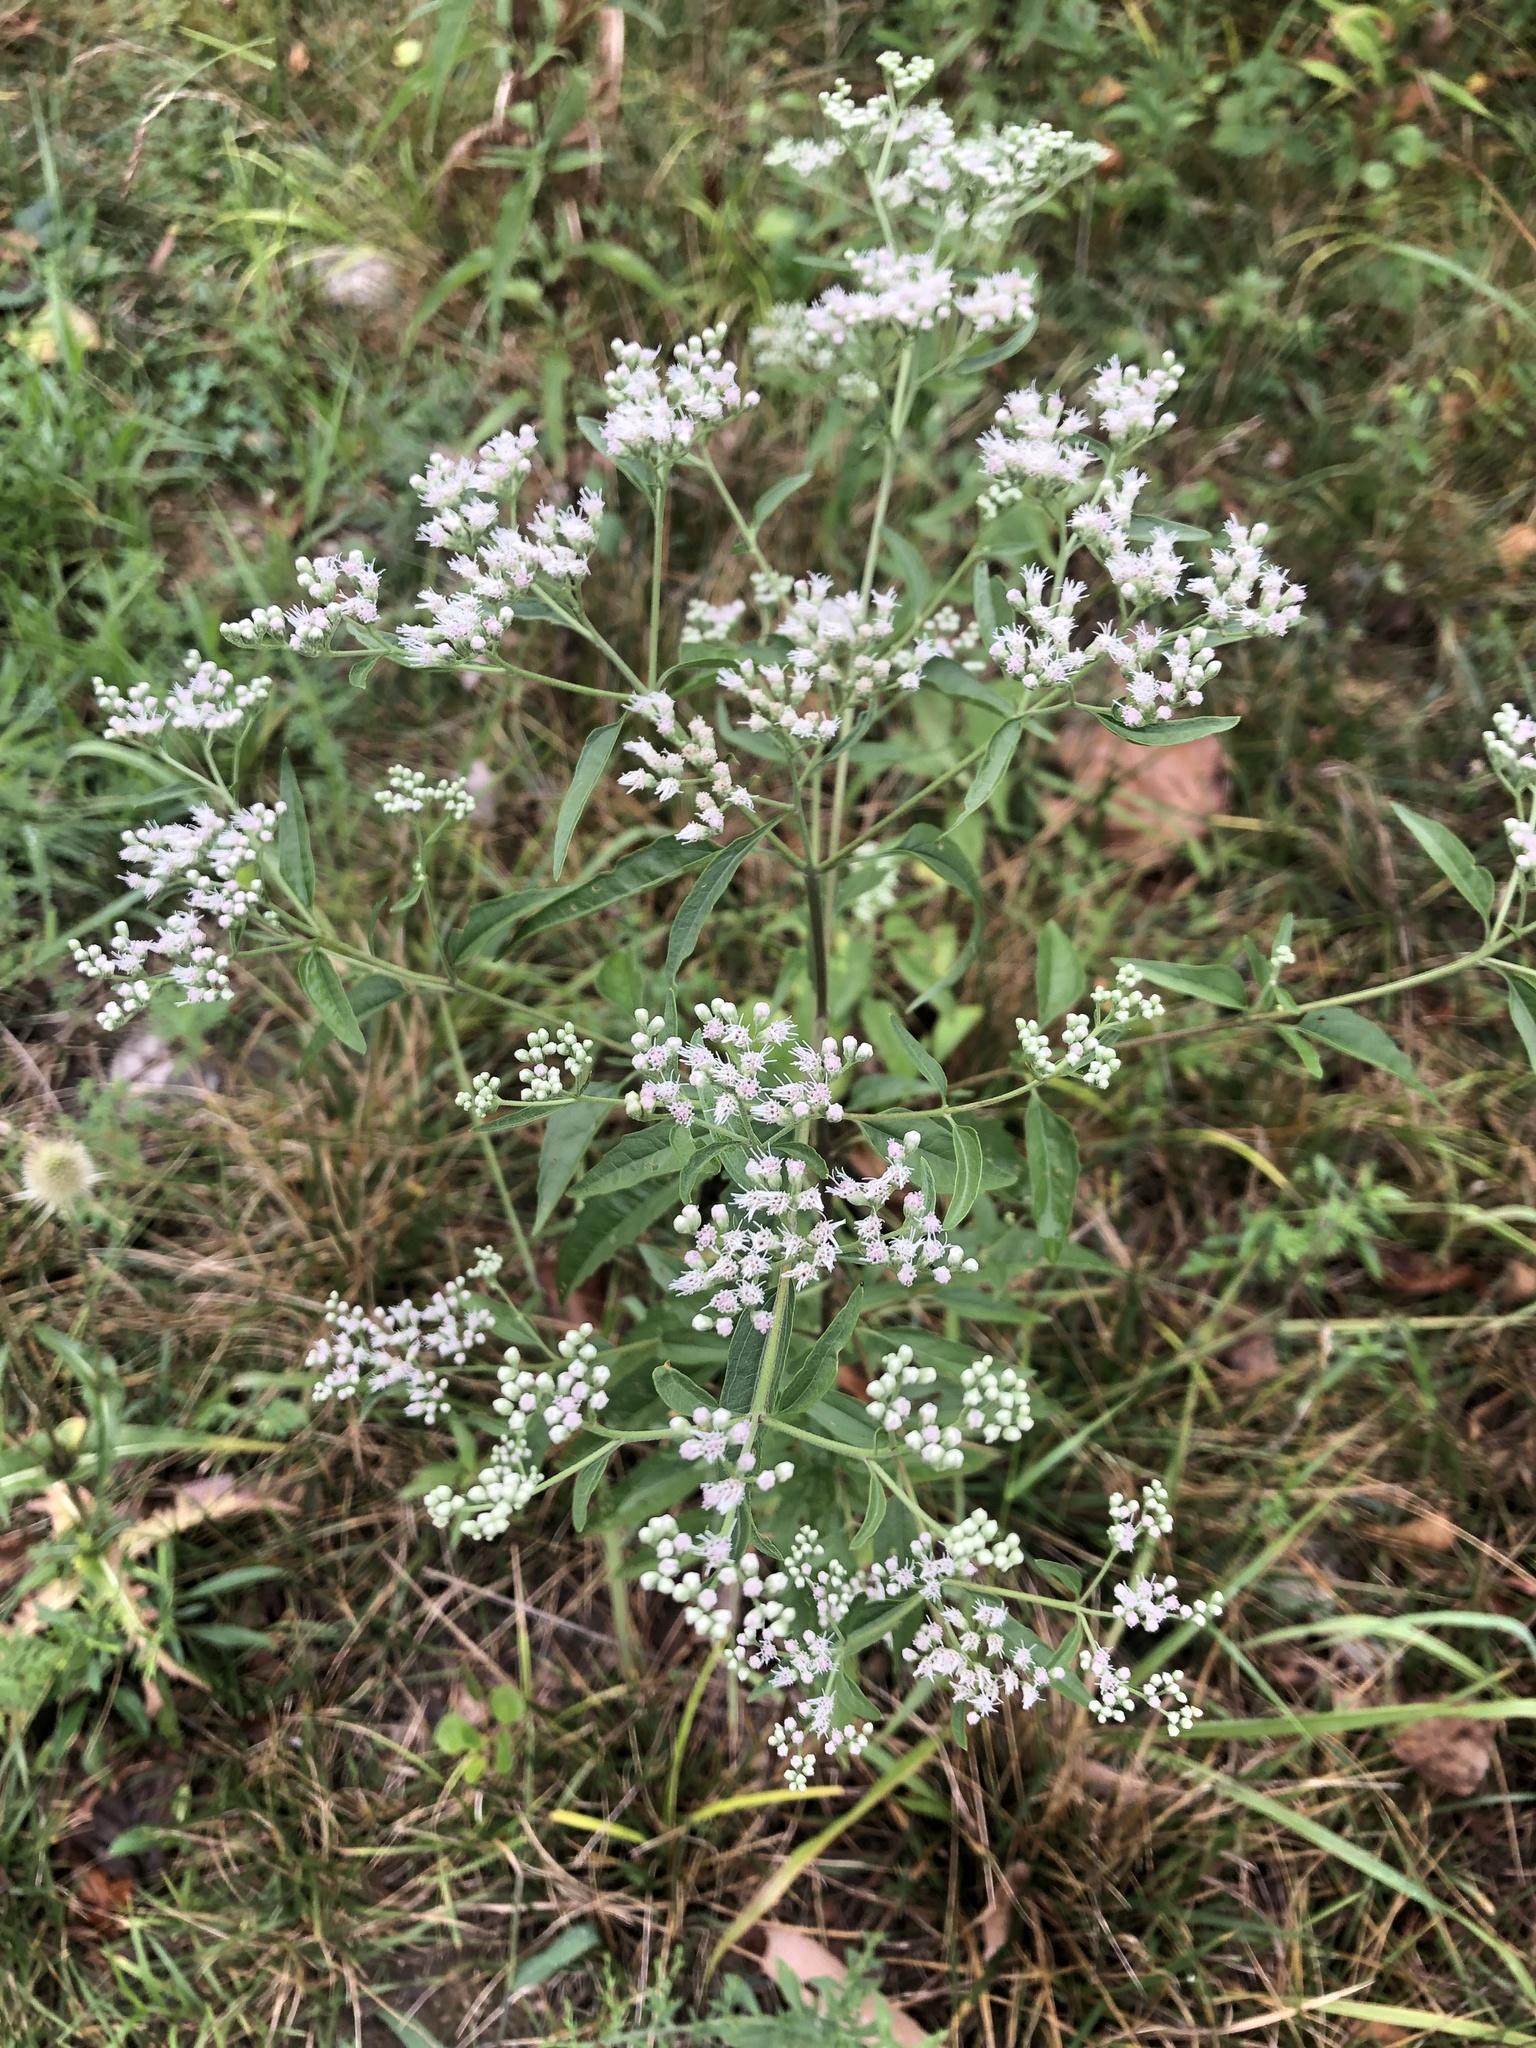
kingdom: Plantae
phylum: Tracheophyta
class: Magnoliopsida
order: Asterales
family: Asteraceae
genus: Eupatorium
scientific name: Eupatorium serotinum
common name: Late boneset
